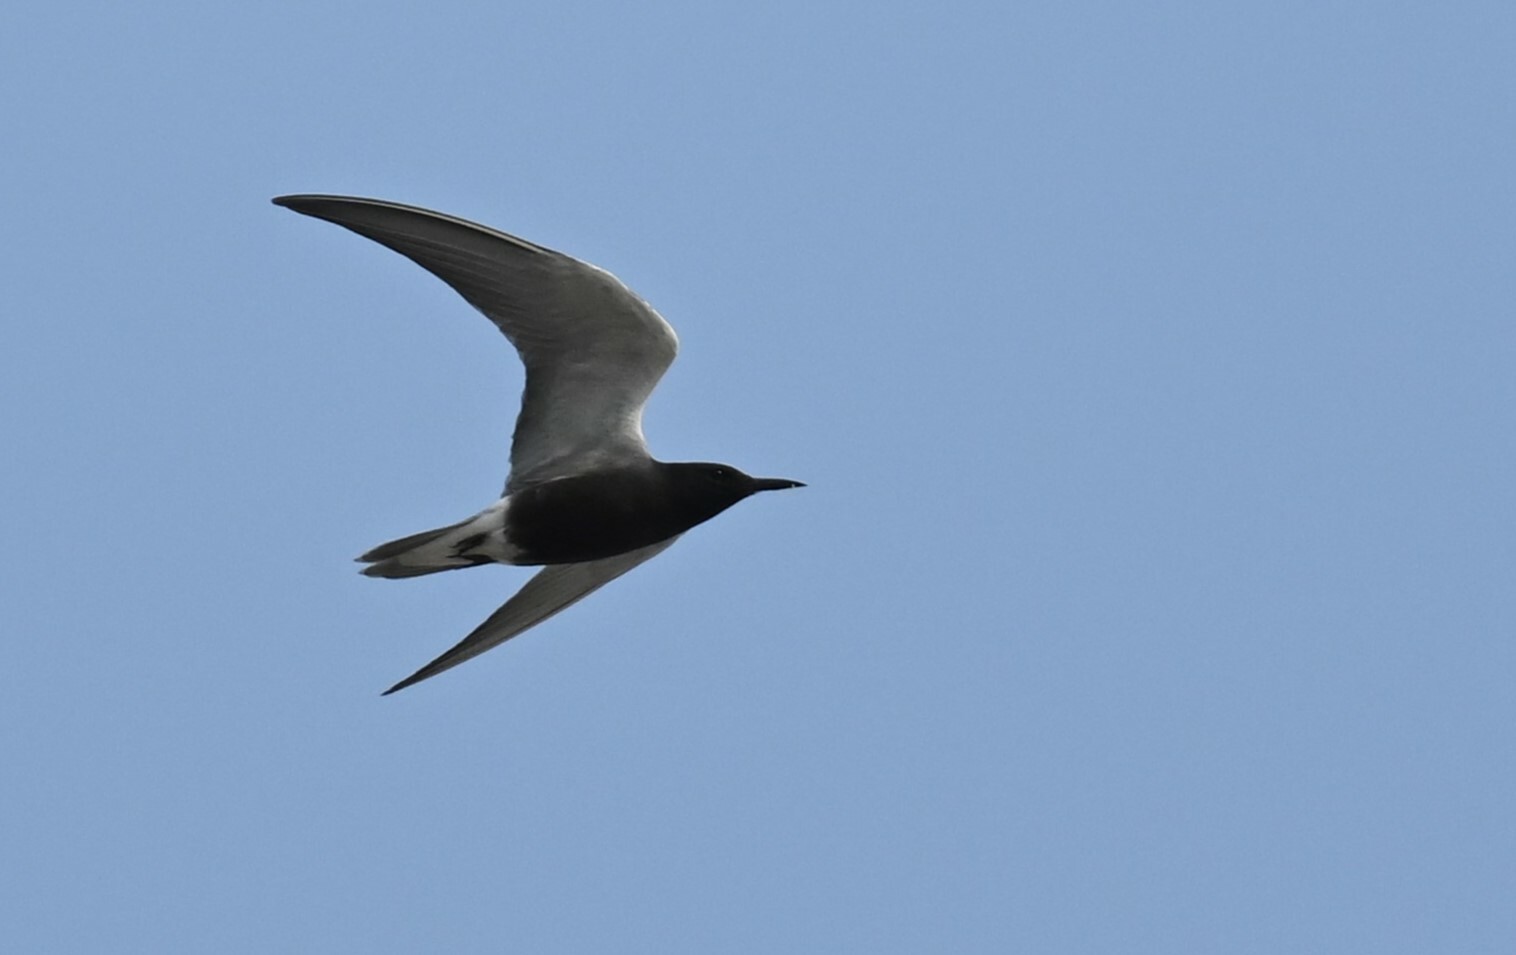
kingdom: Animalia
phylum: Chordata
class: Aves
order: Charadriiformes
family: Laridae
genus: Chlidonias
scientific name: Chlidonias niger
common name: Black tern
